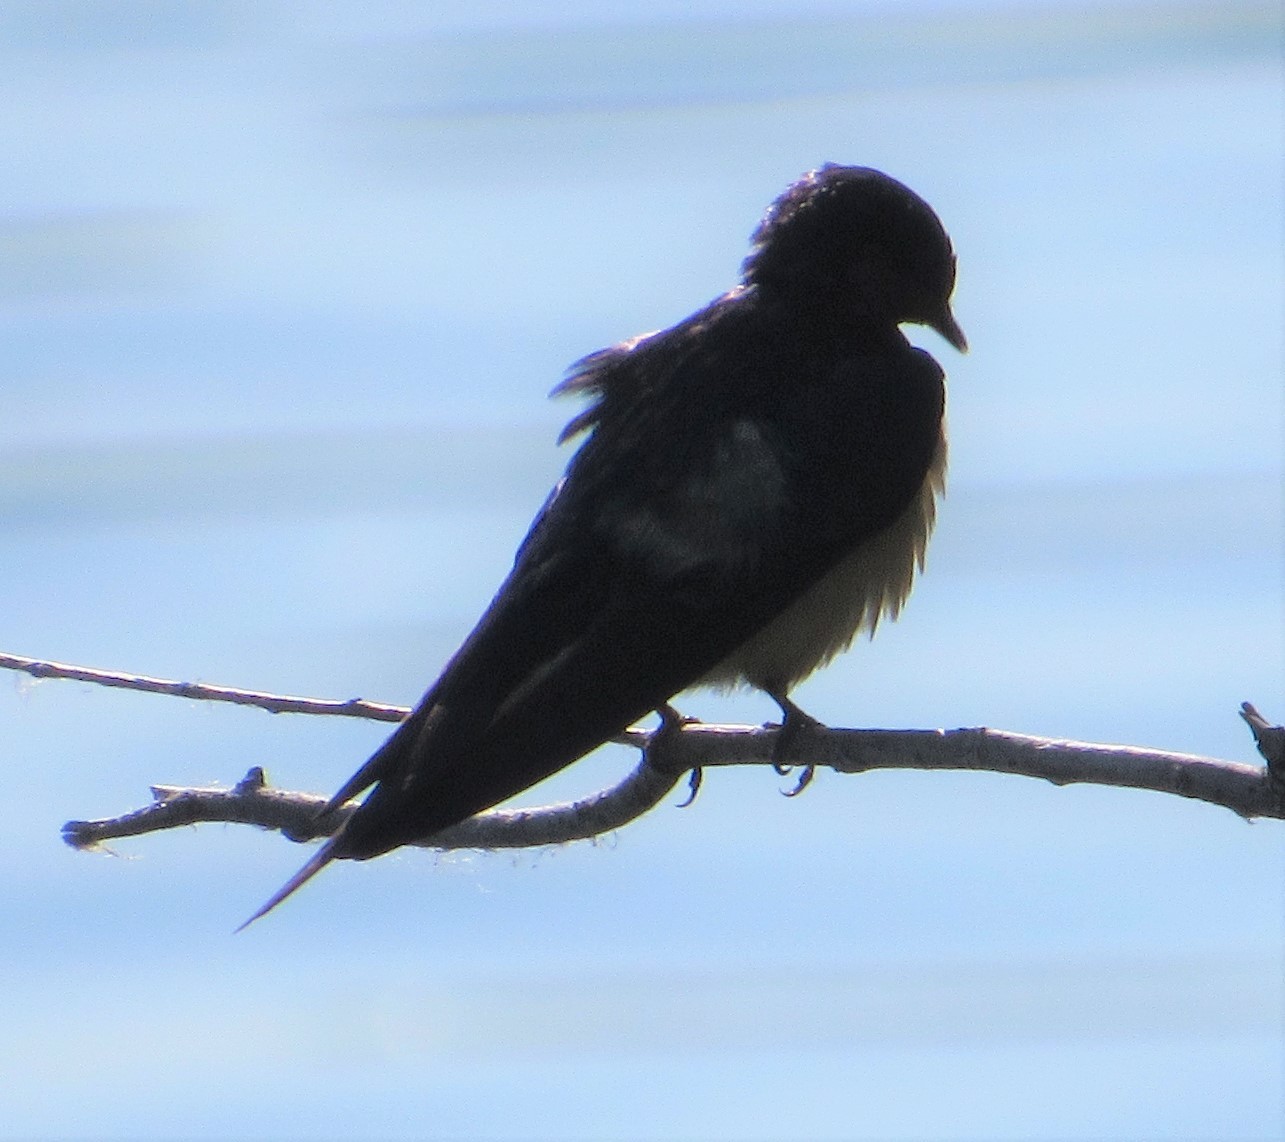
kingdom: Animalia
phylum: Chordata
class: Aves
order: Passeriformes
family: Hirundinidae
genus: Hirundo
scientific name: Hirundo rustica
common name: Barn swallow
